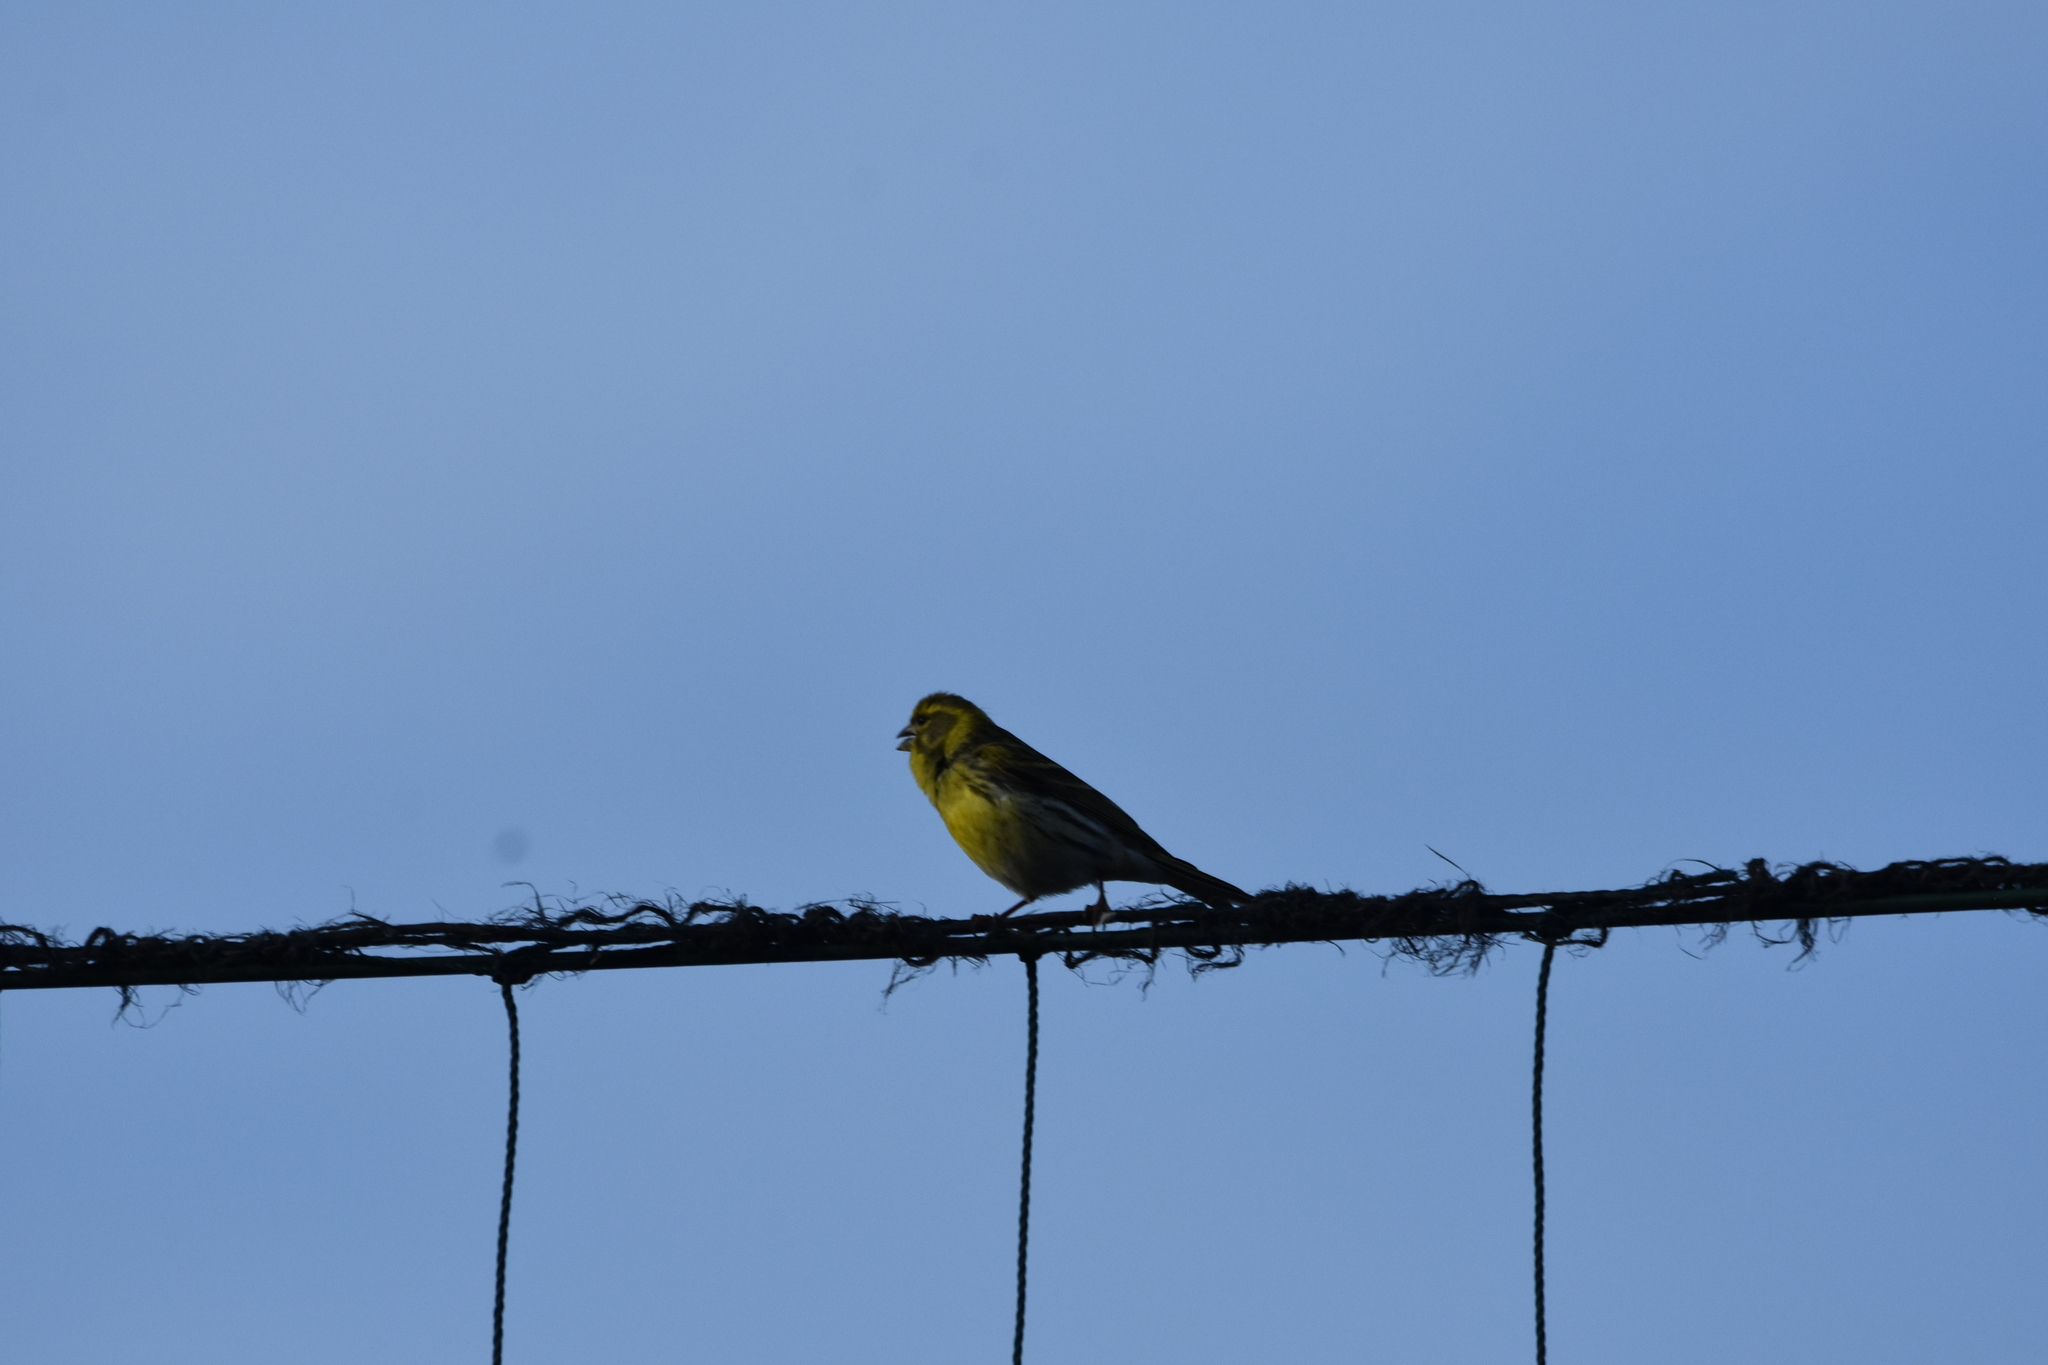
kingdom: Animalia
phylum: Chordata
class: Aves
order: Passeriformes
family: Fringillidae
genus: Serinus
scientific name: Serinus serinus
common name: European serin
